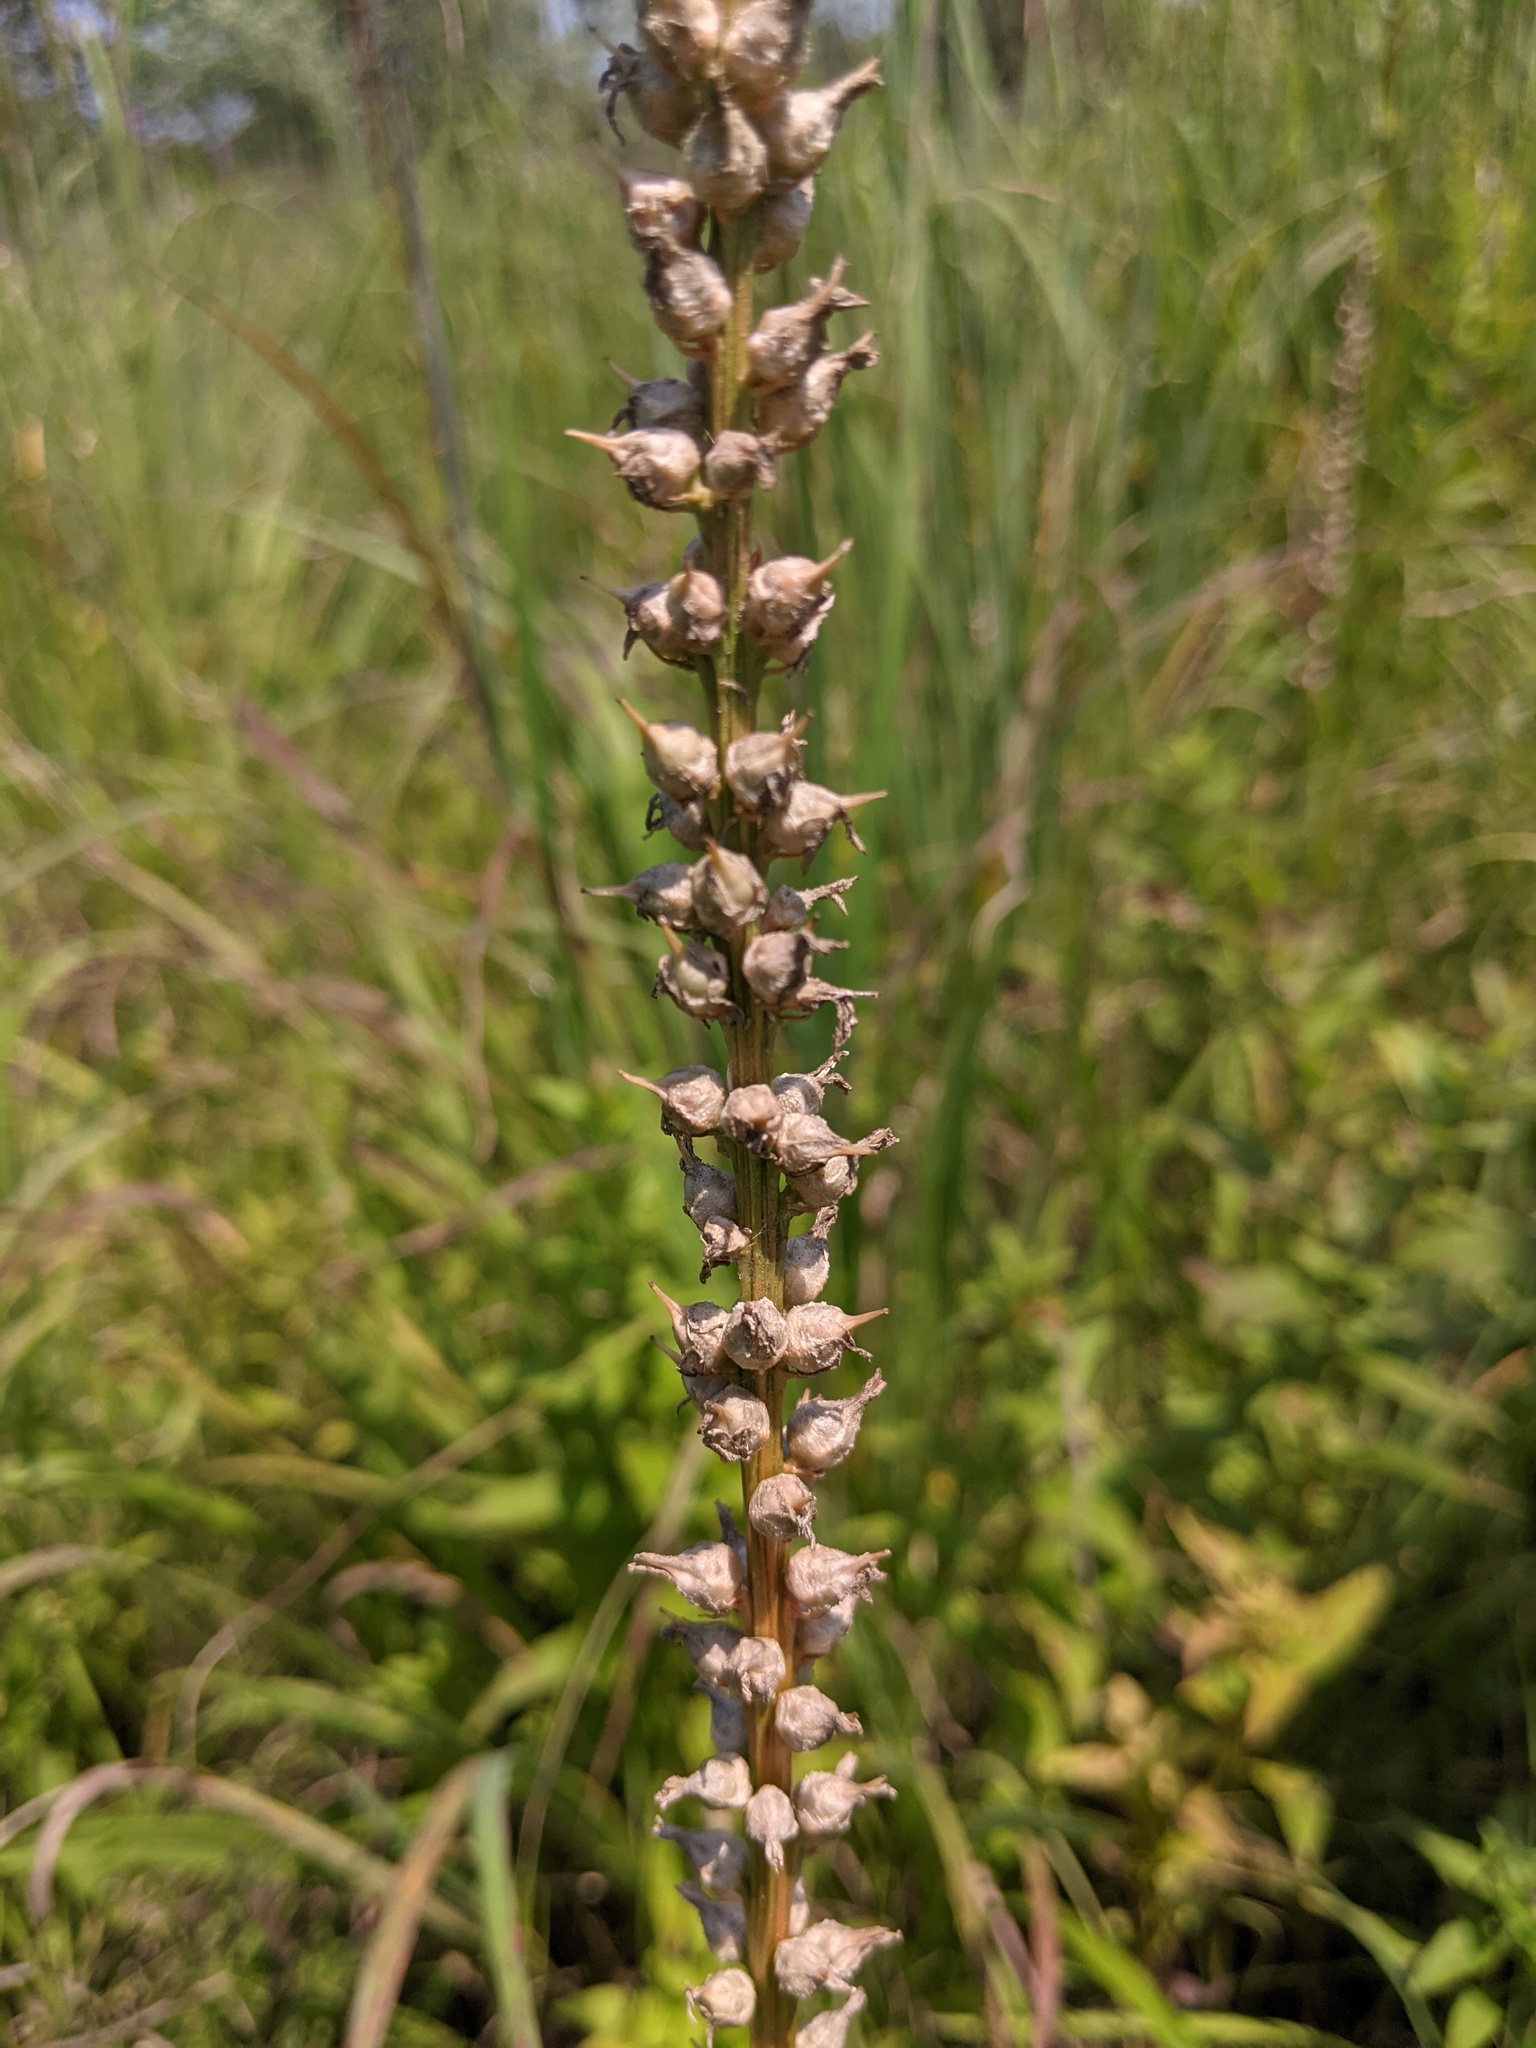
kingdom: Plantae
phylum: Tracheophyta
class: Liliopsida
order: Dioscoreales
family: Nartheciaceae
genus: Aletris
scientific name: Aletris farinosa
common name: Colicroot
